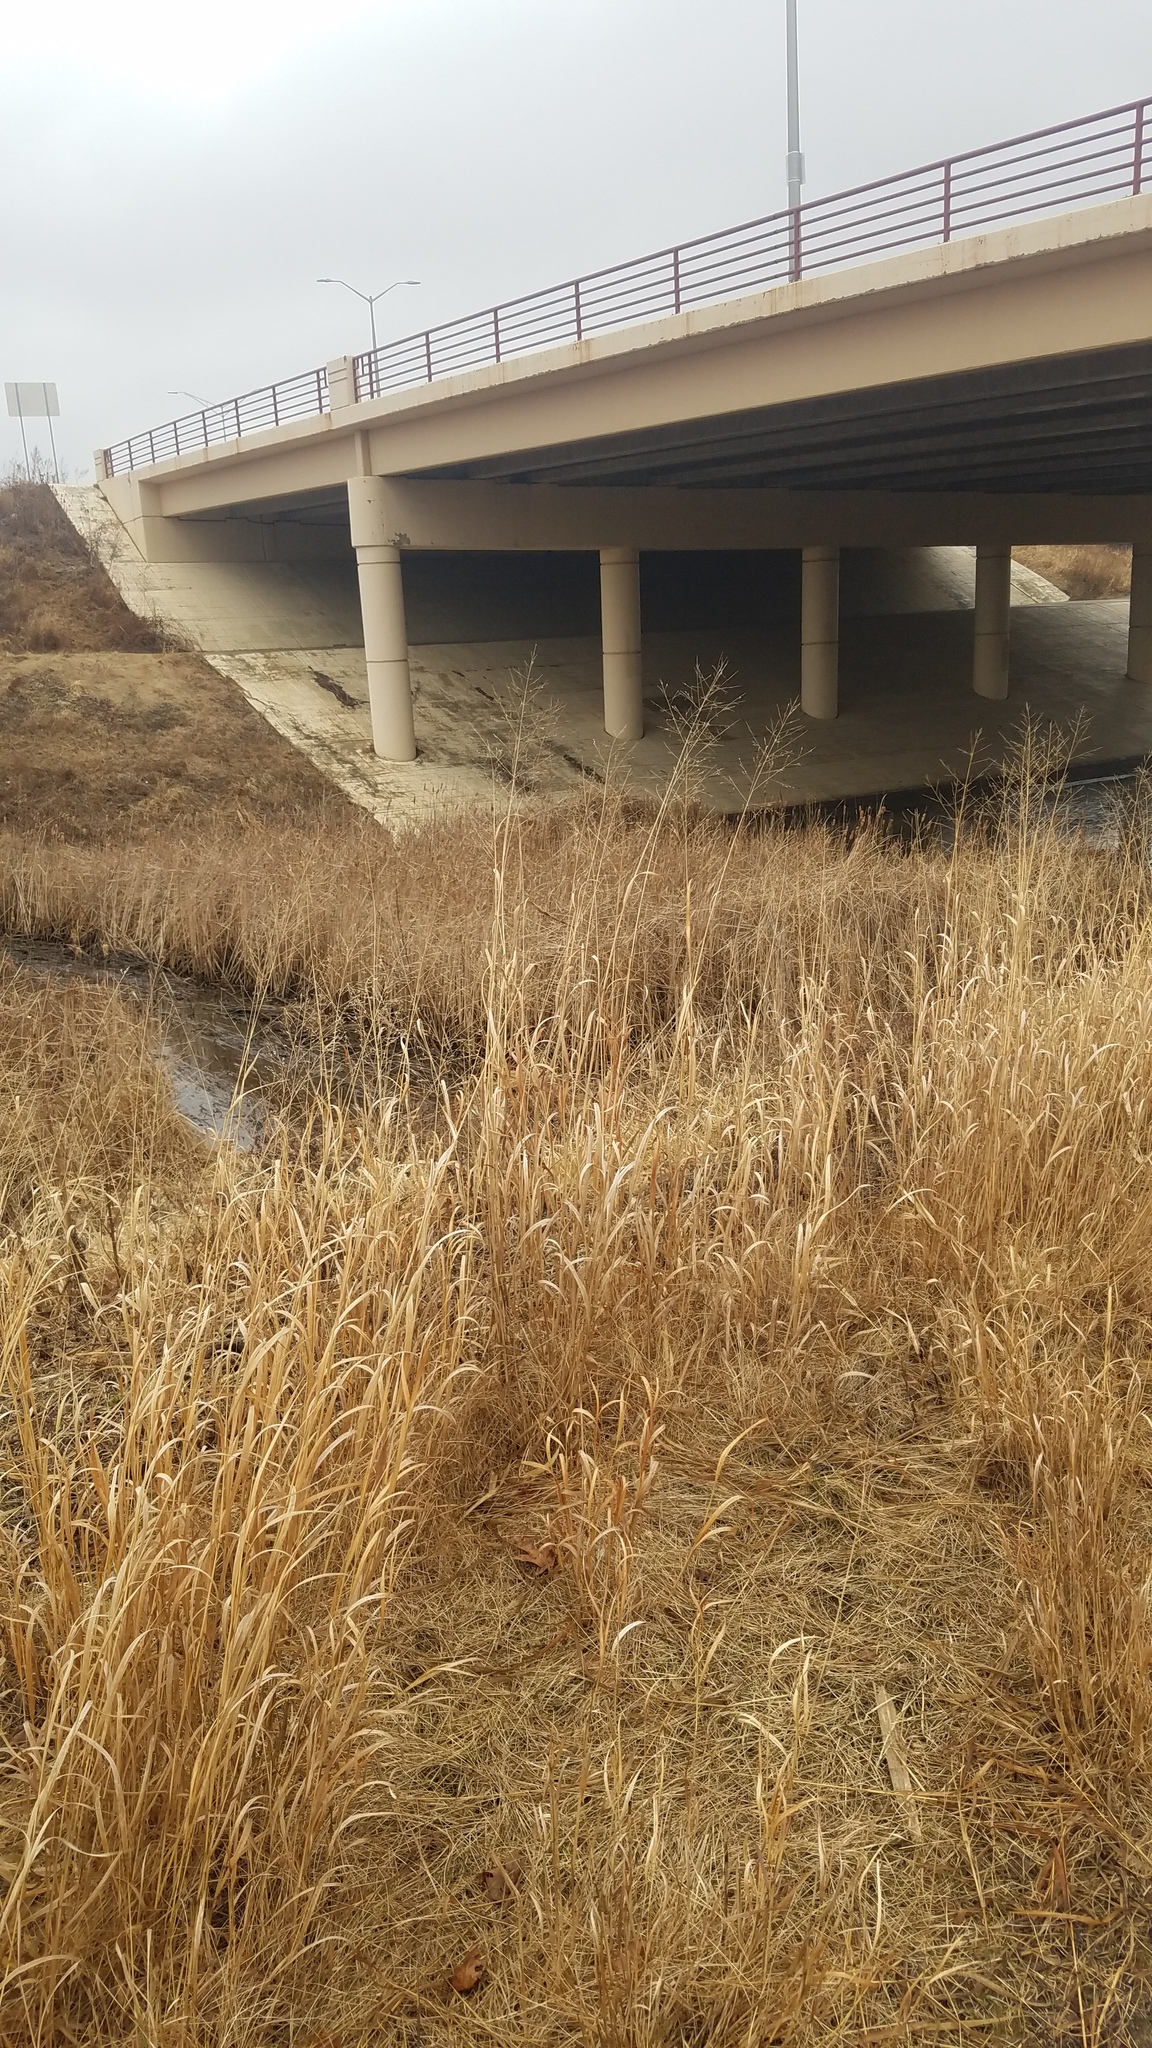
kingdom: Plantae
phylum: Tracheophyta
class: Liliopsida
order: Poales
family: Poaceae
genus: Panicum
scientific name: Panicum virgatum
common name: Switchgrass
